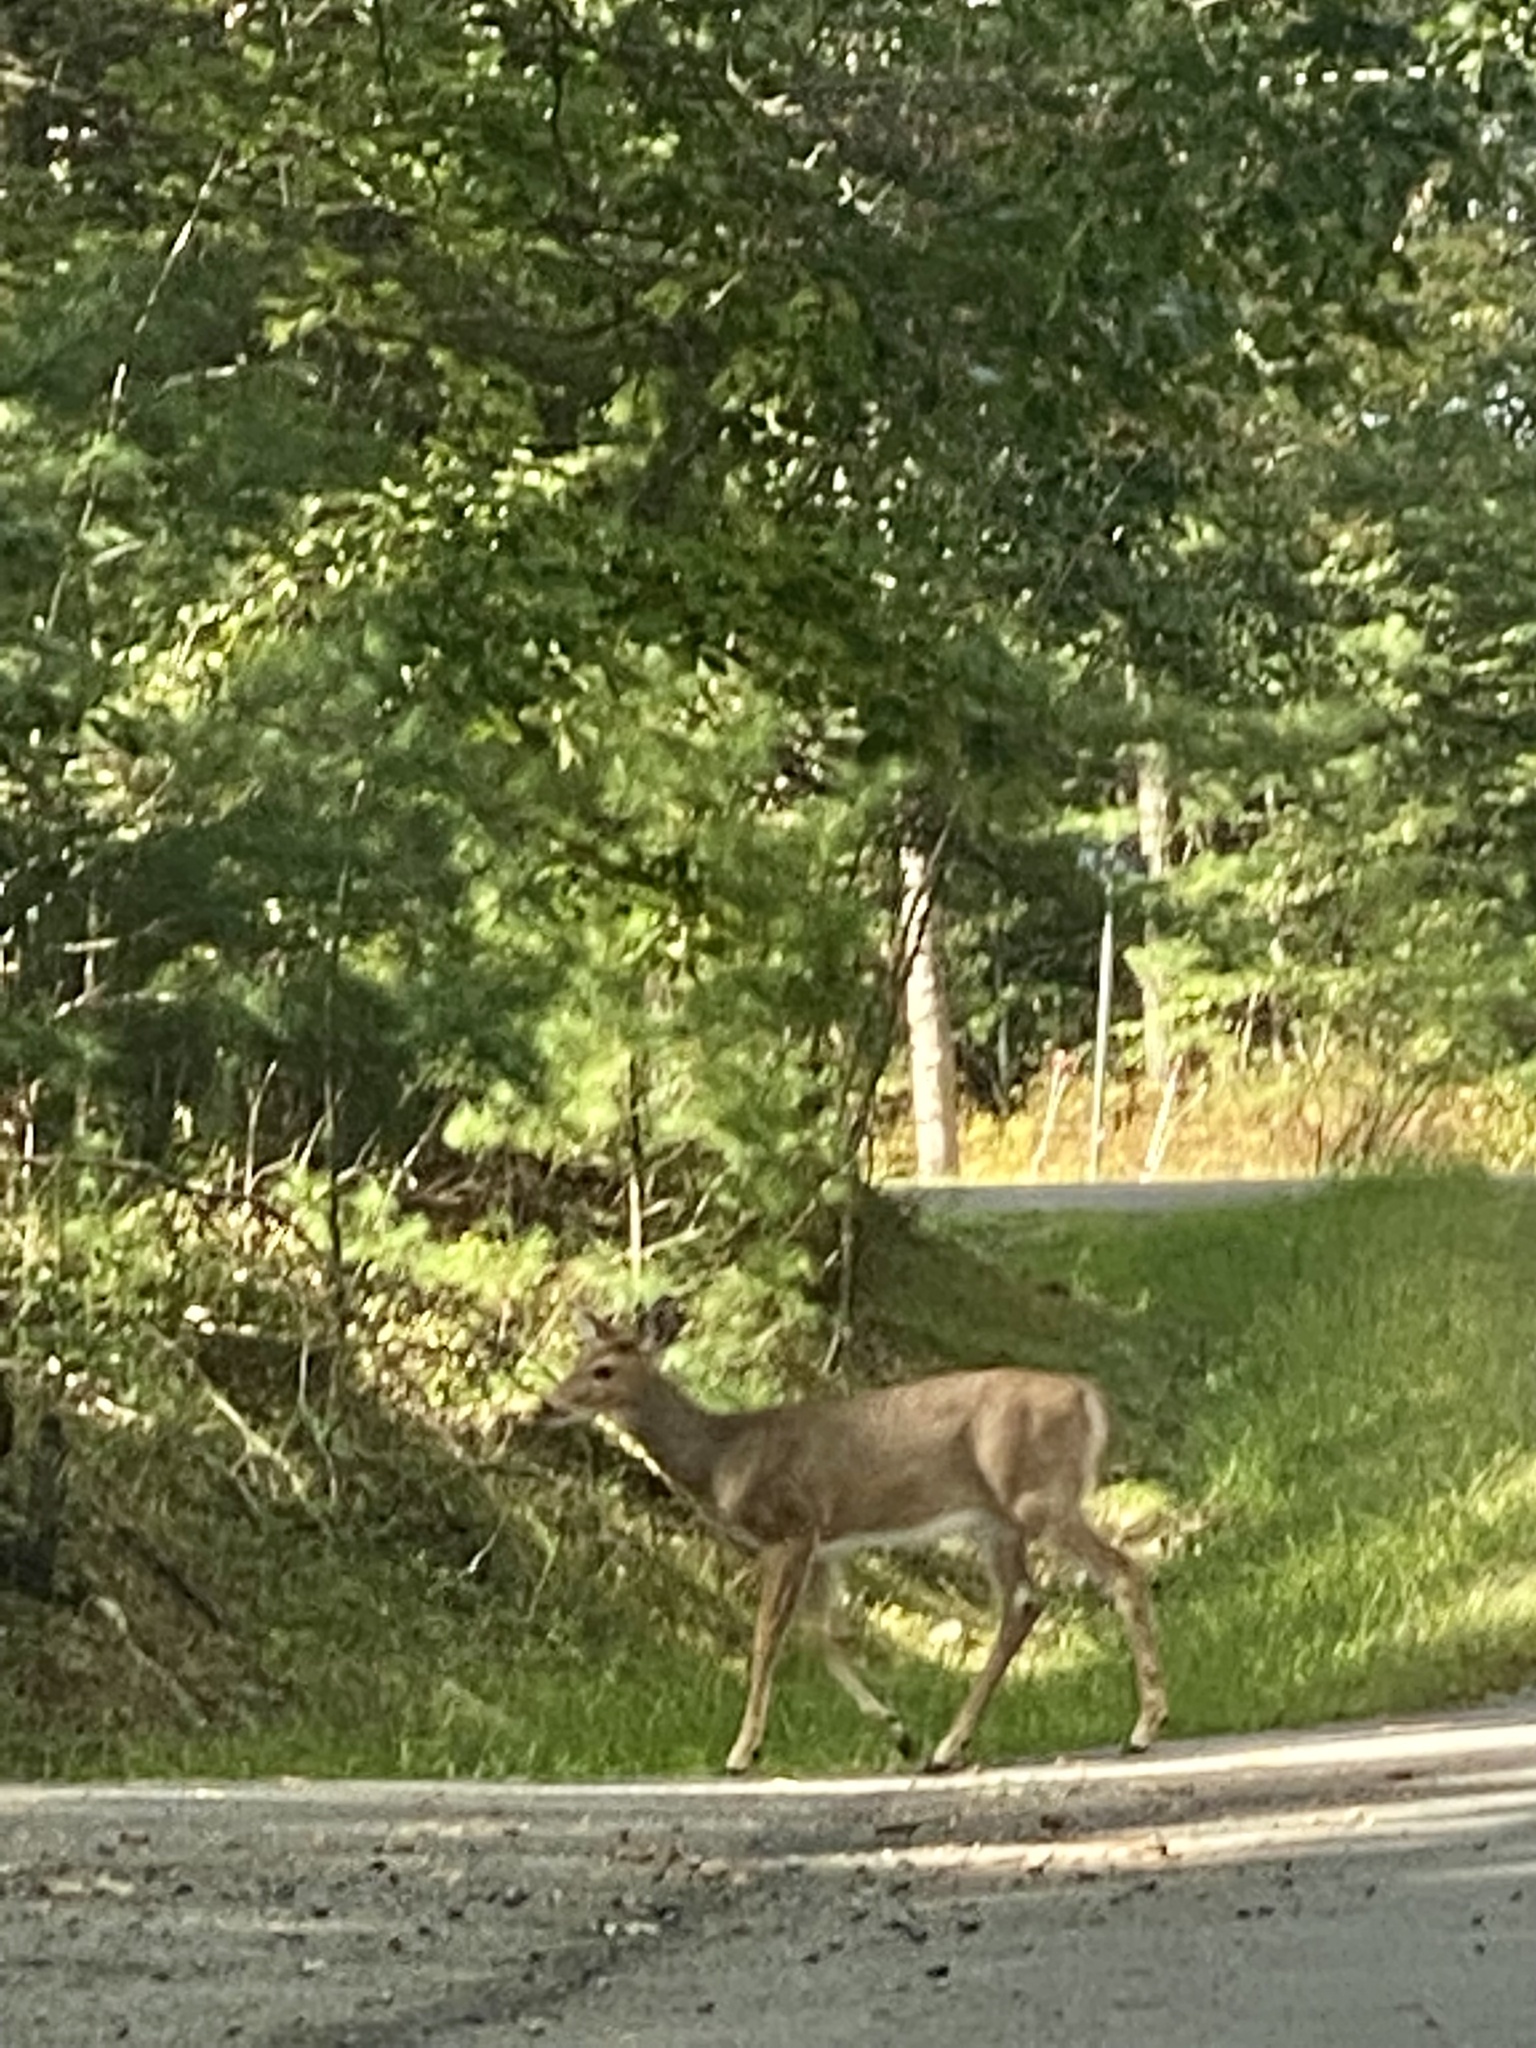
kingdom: Animalia
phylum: Chordata
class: Mammalia
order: Artiodactyla
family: Cervidae
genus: Odocoileus
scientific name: Odocoileus virginianus
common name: White-tailed deer
